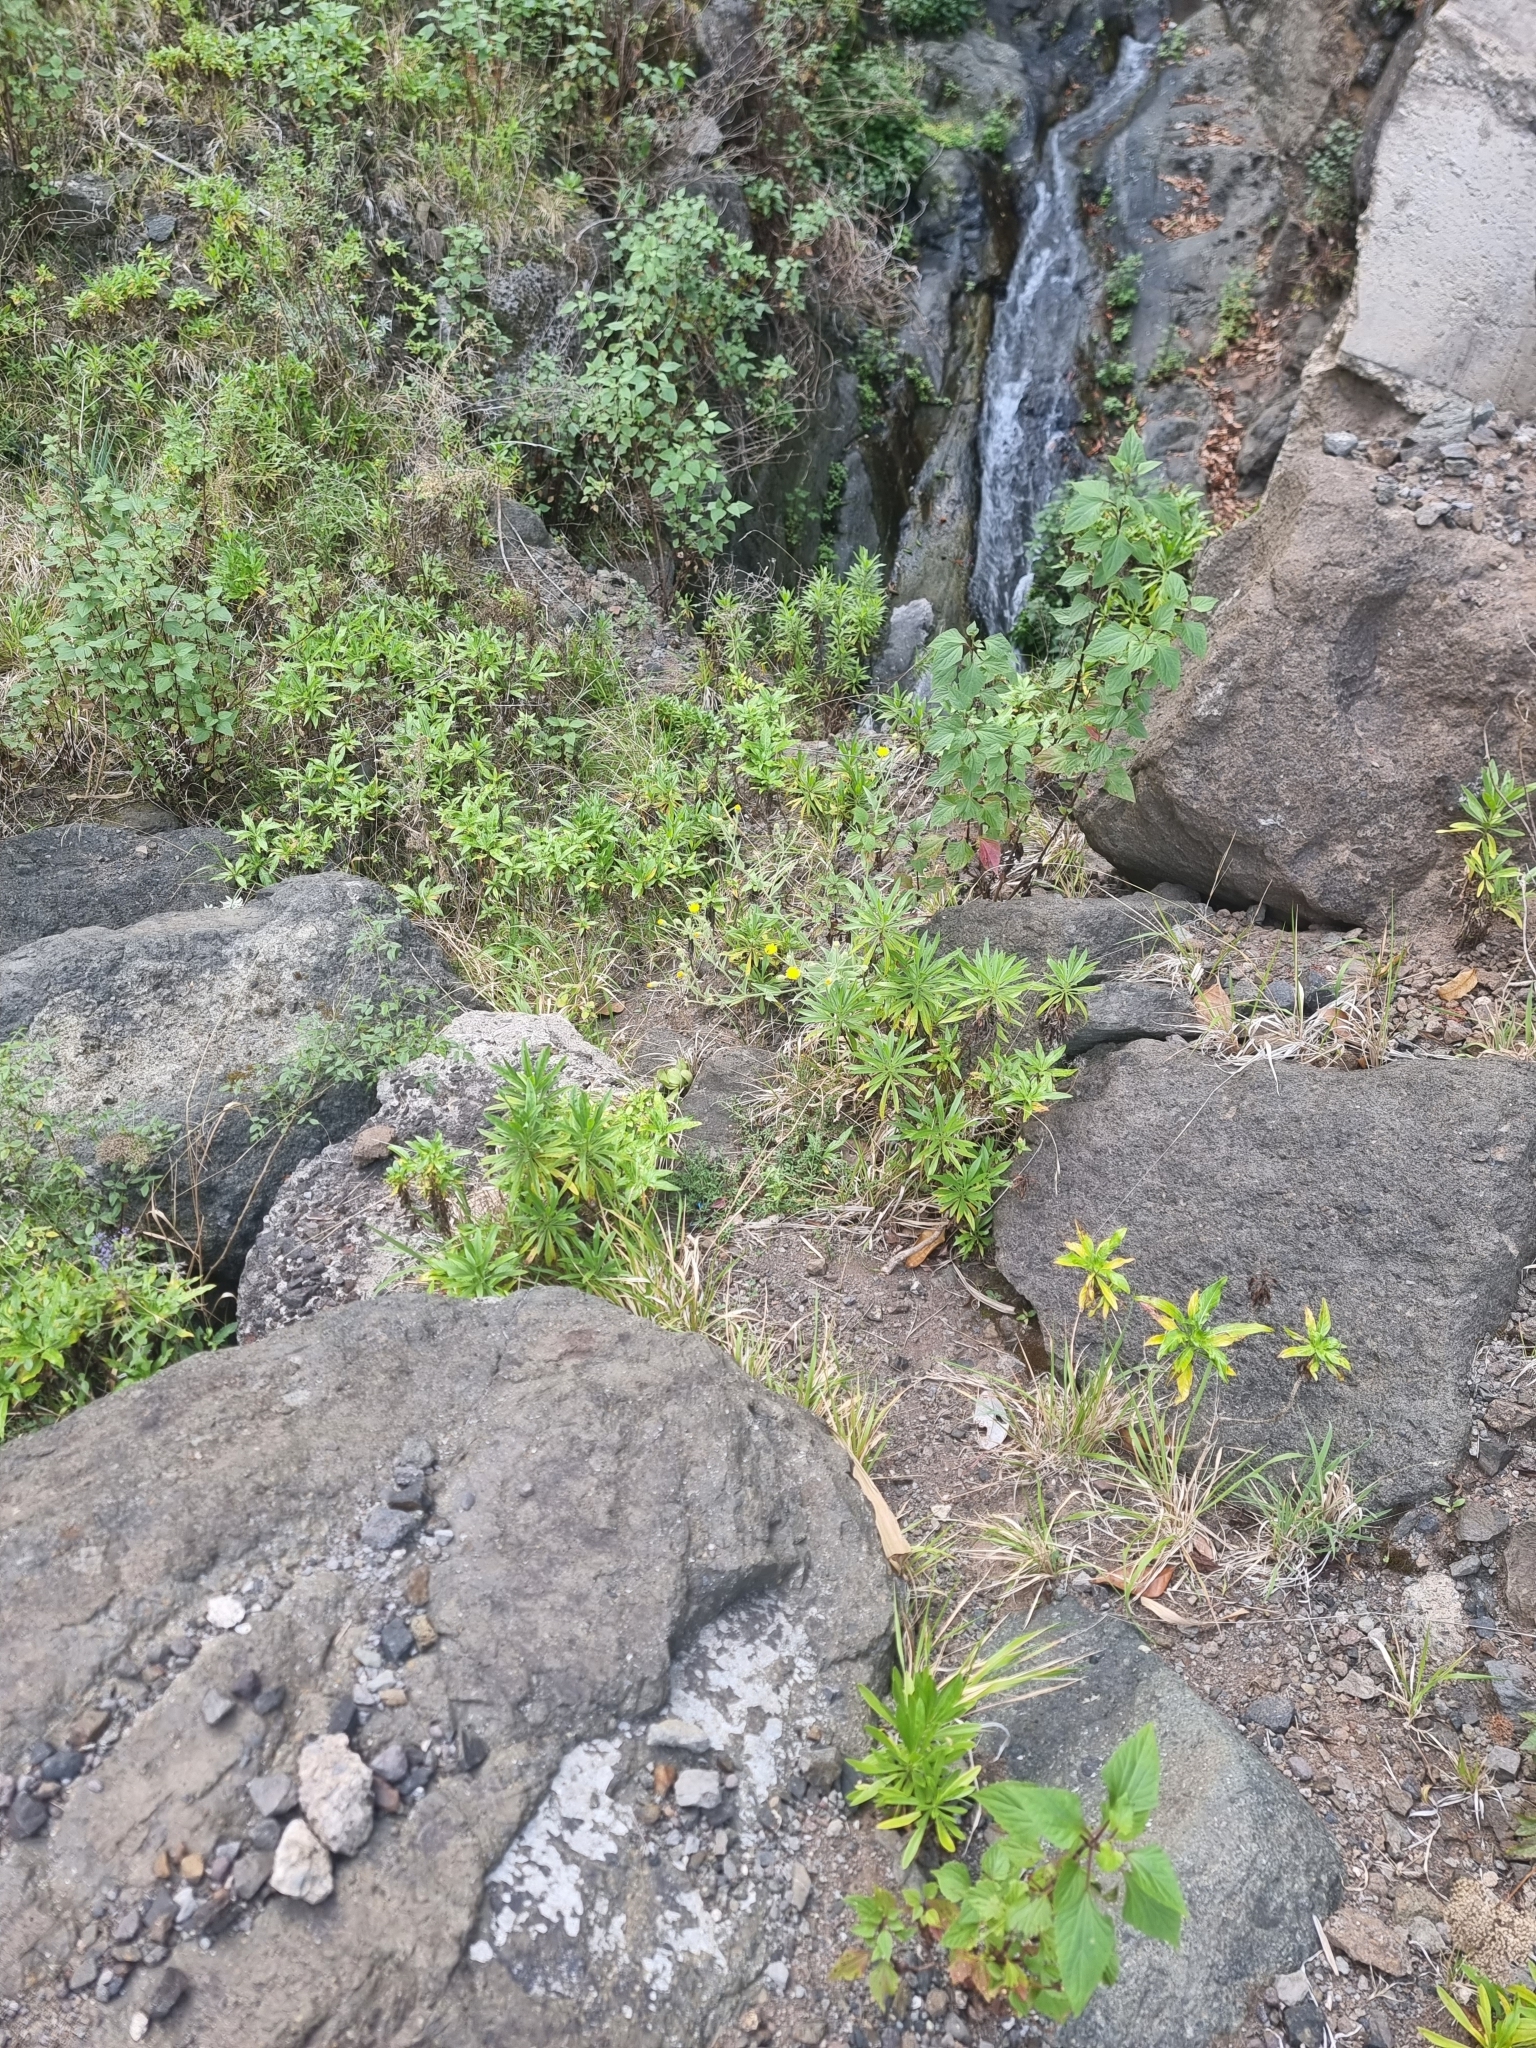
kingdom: Plantae
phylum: Tracheophyta
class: Magnoliopsida
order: Lamiales
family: Plantaginaceae
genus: Globularia
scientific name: Globularia salicina
